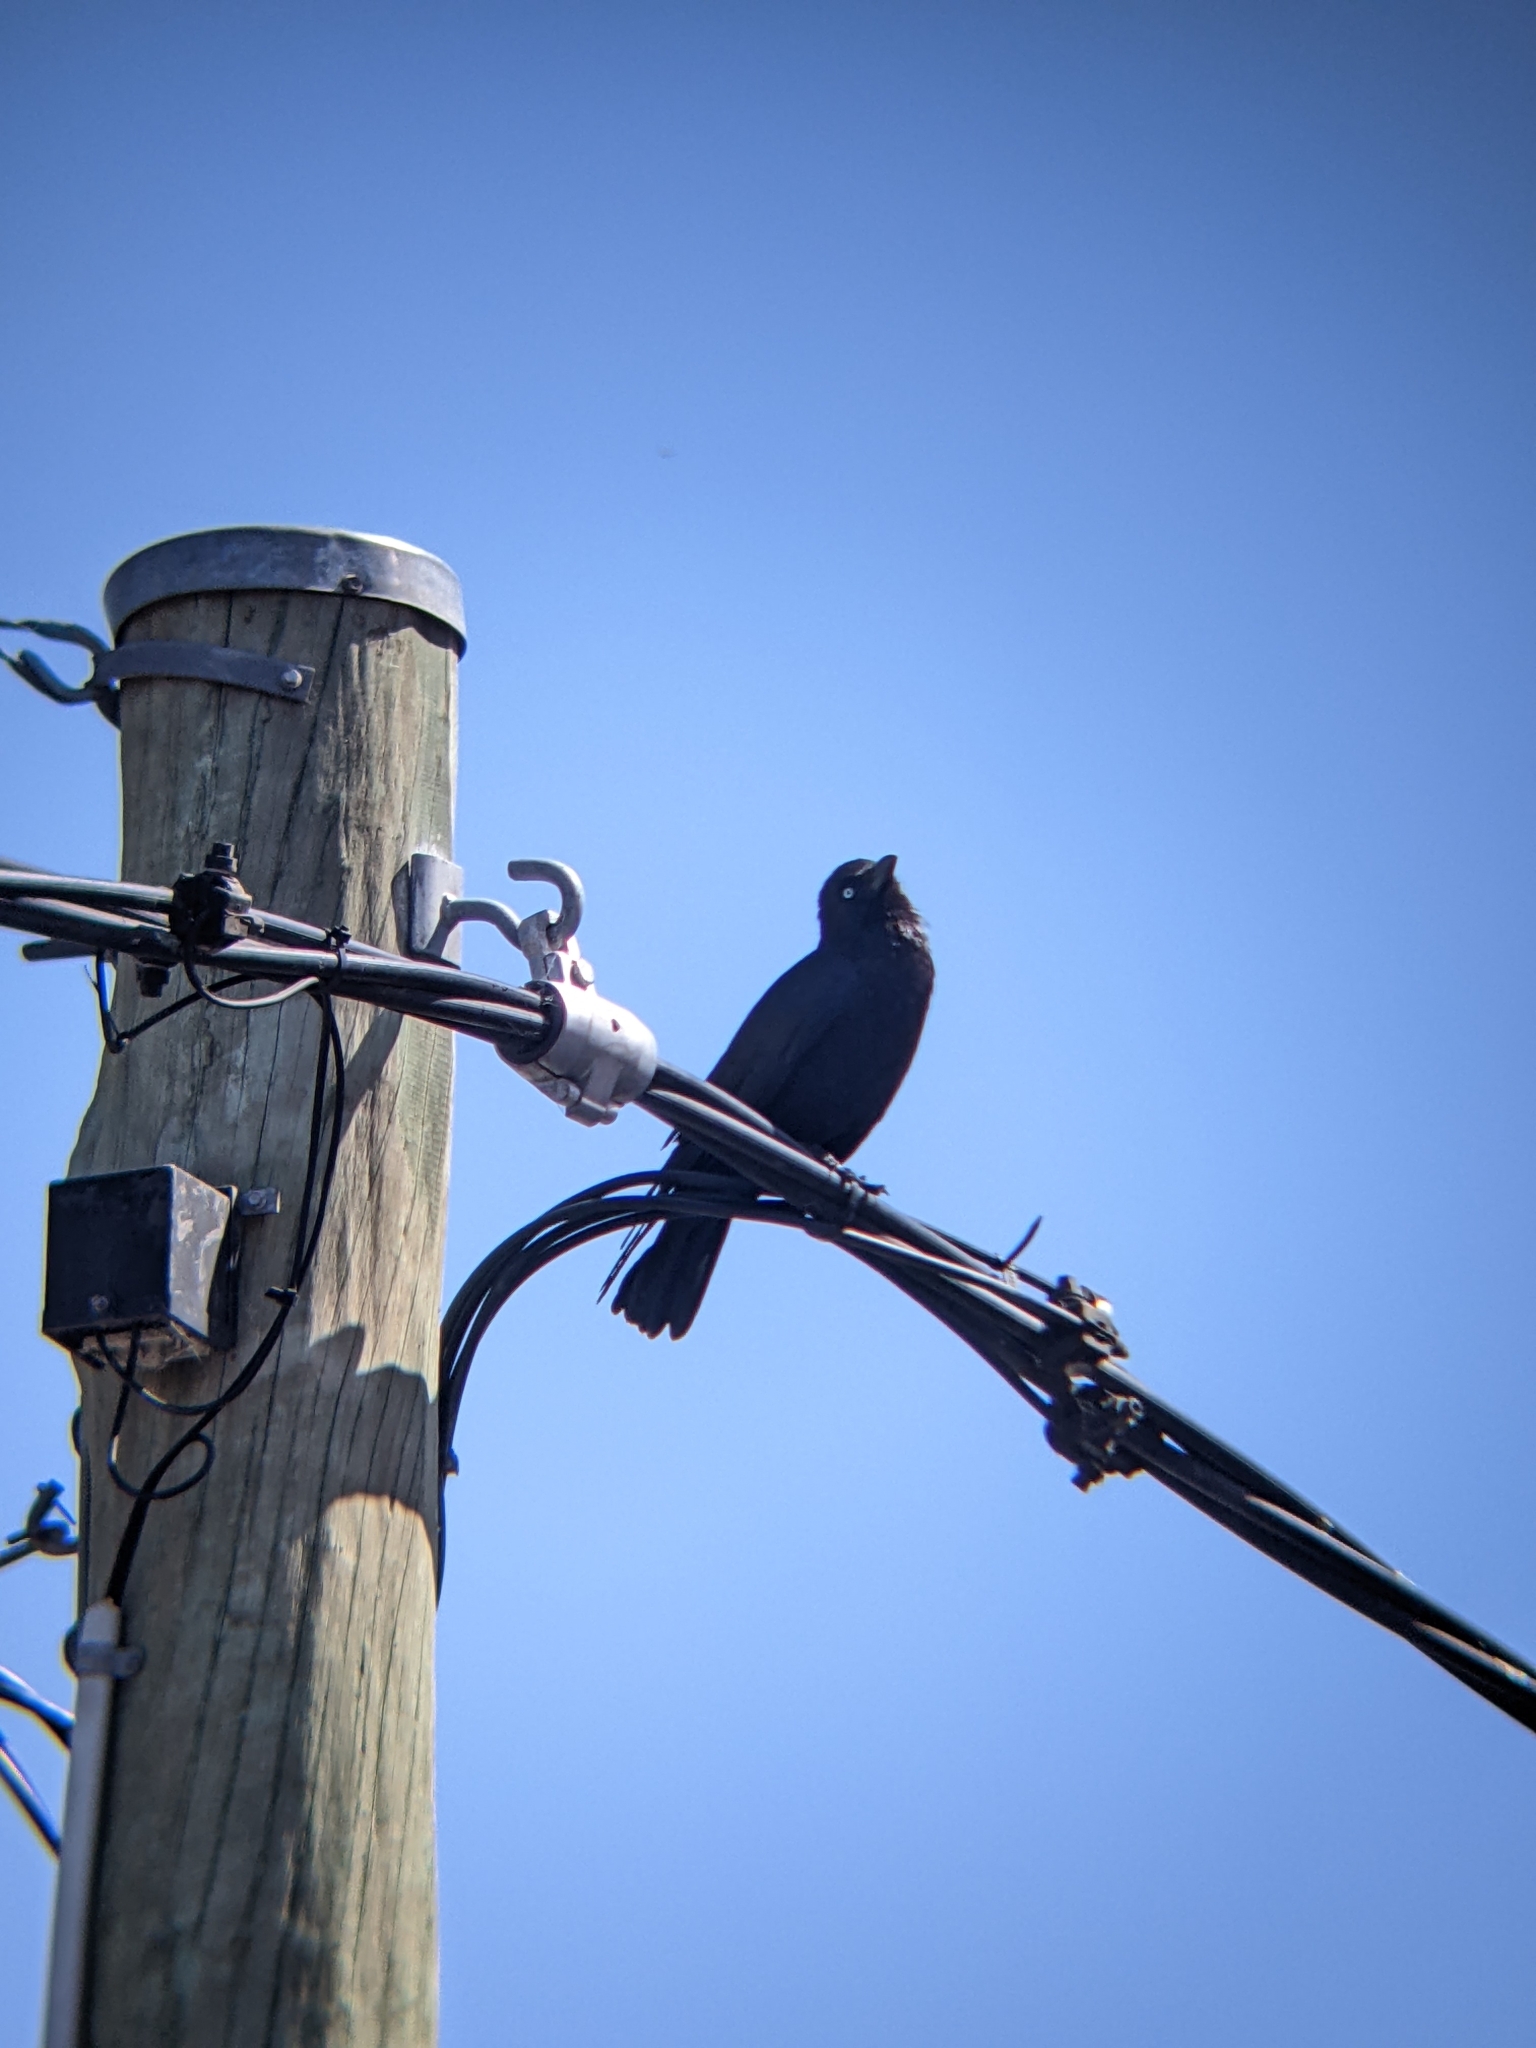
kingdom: Animalia
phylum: Chordata
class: Aves
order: Passeriformes
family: Corvidae
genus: Corvus
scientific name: Corvus mellori
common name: Little raven
